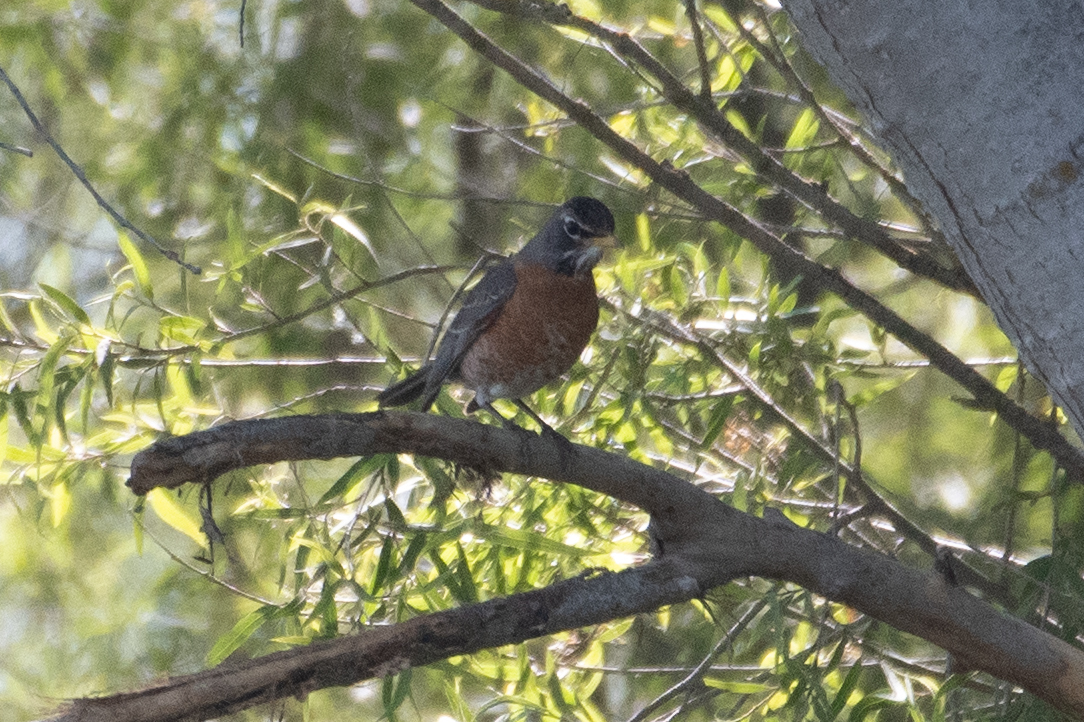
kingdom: Animalia
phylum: Chordata
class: Aves
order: Passeriformes
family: Turdidae
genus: Turdus
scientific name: Turdus migratorius
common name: American robin
